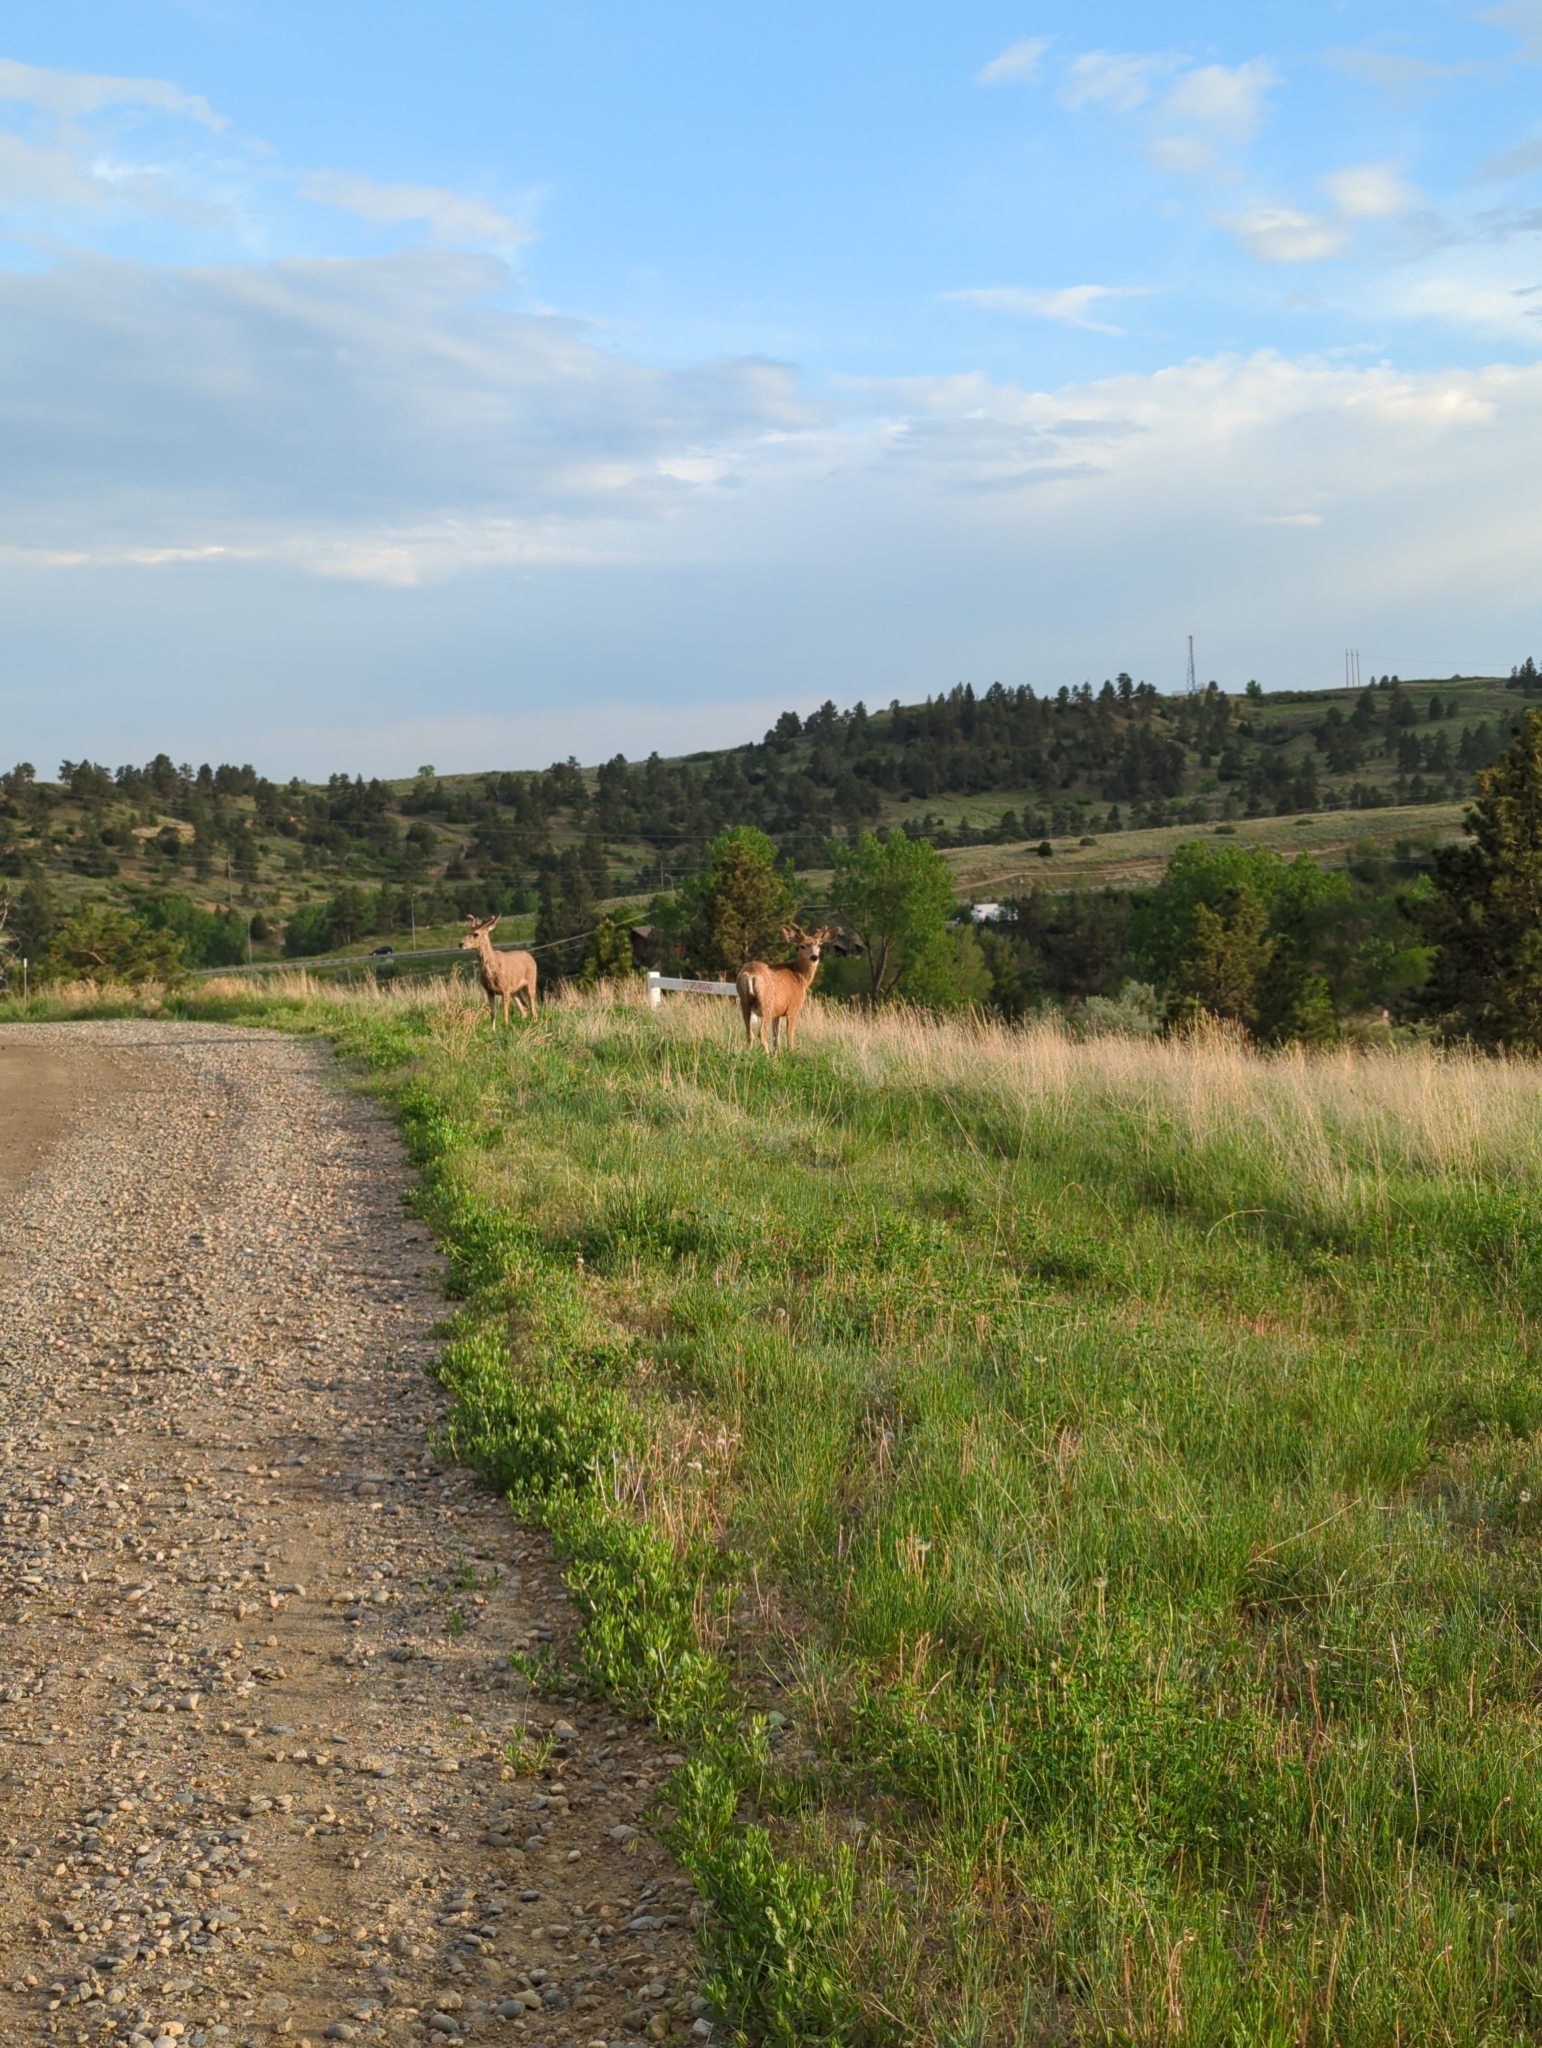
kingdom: Animalia
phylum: Chordata
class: Mammalia
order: Artiodactyla
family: Cervidae
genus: Odocoileus
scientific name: Odocoileus hemionus
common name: Mule deer
